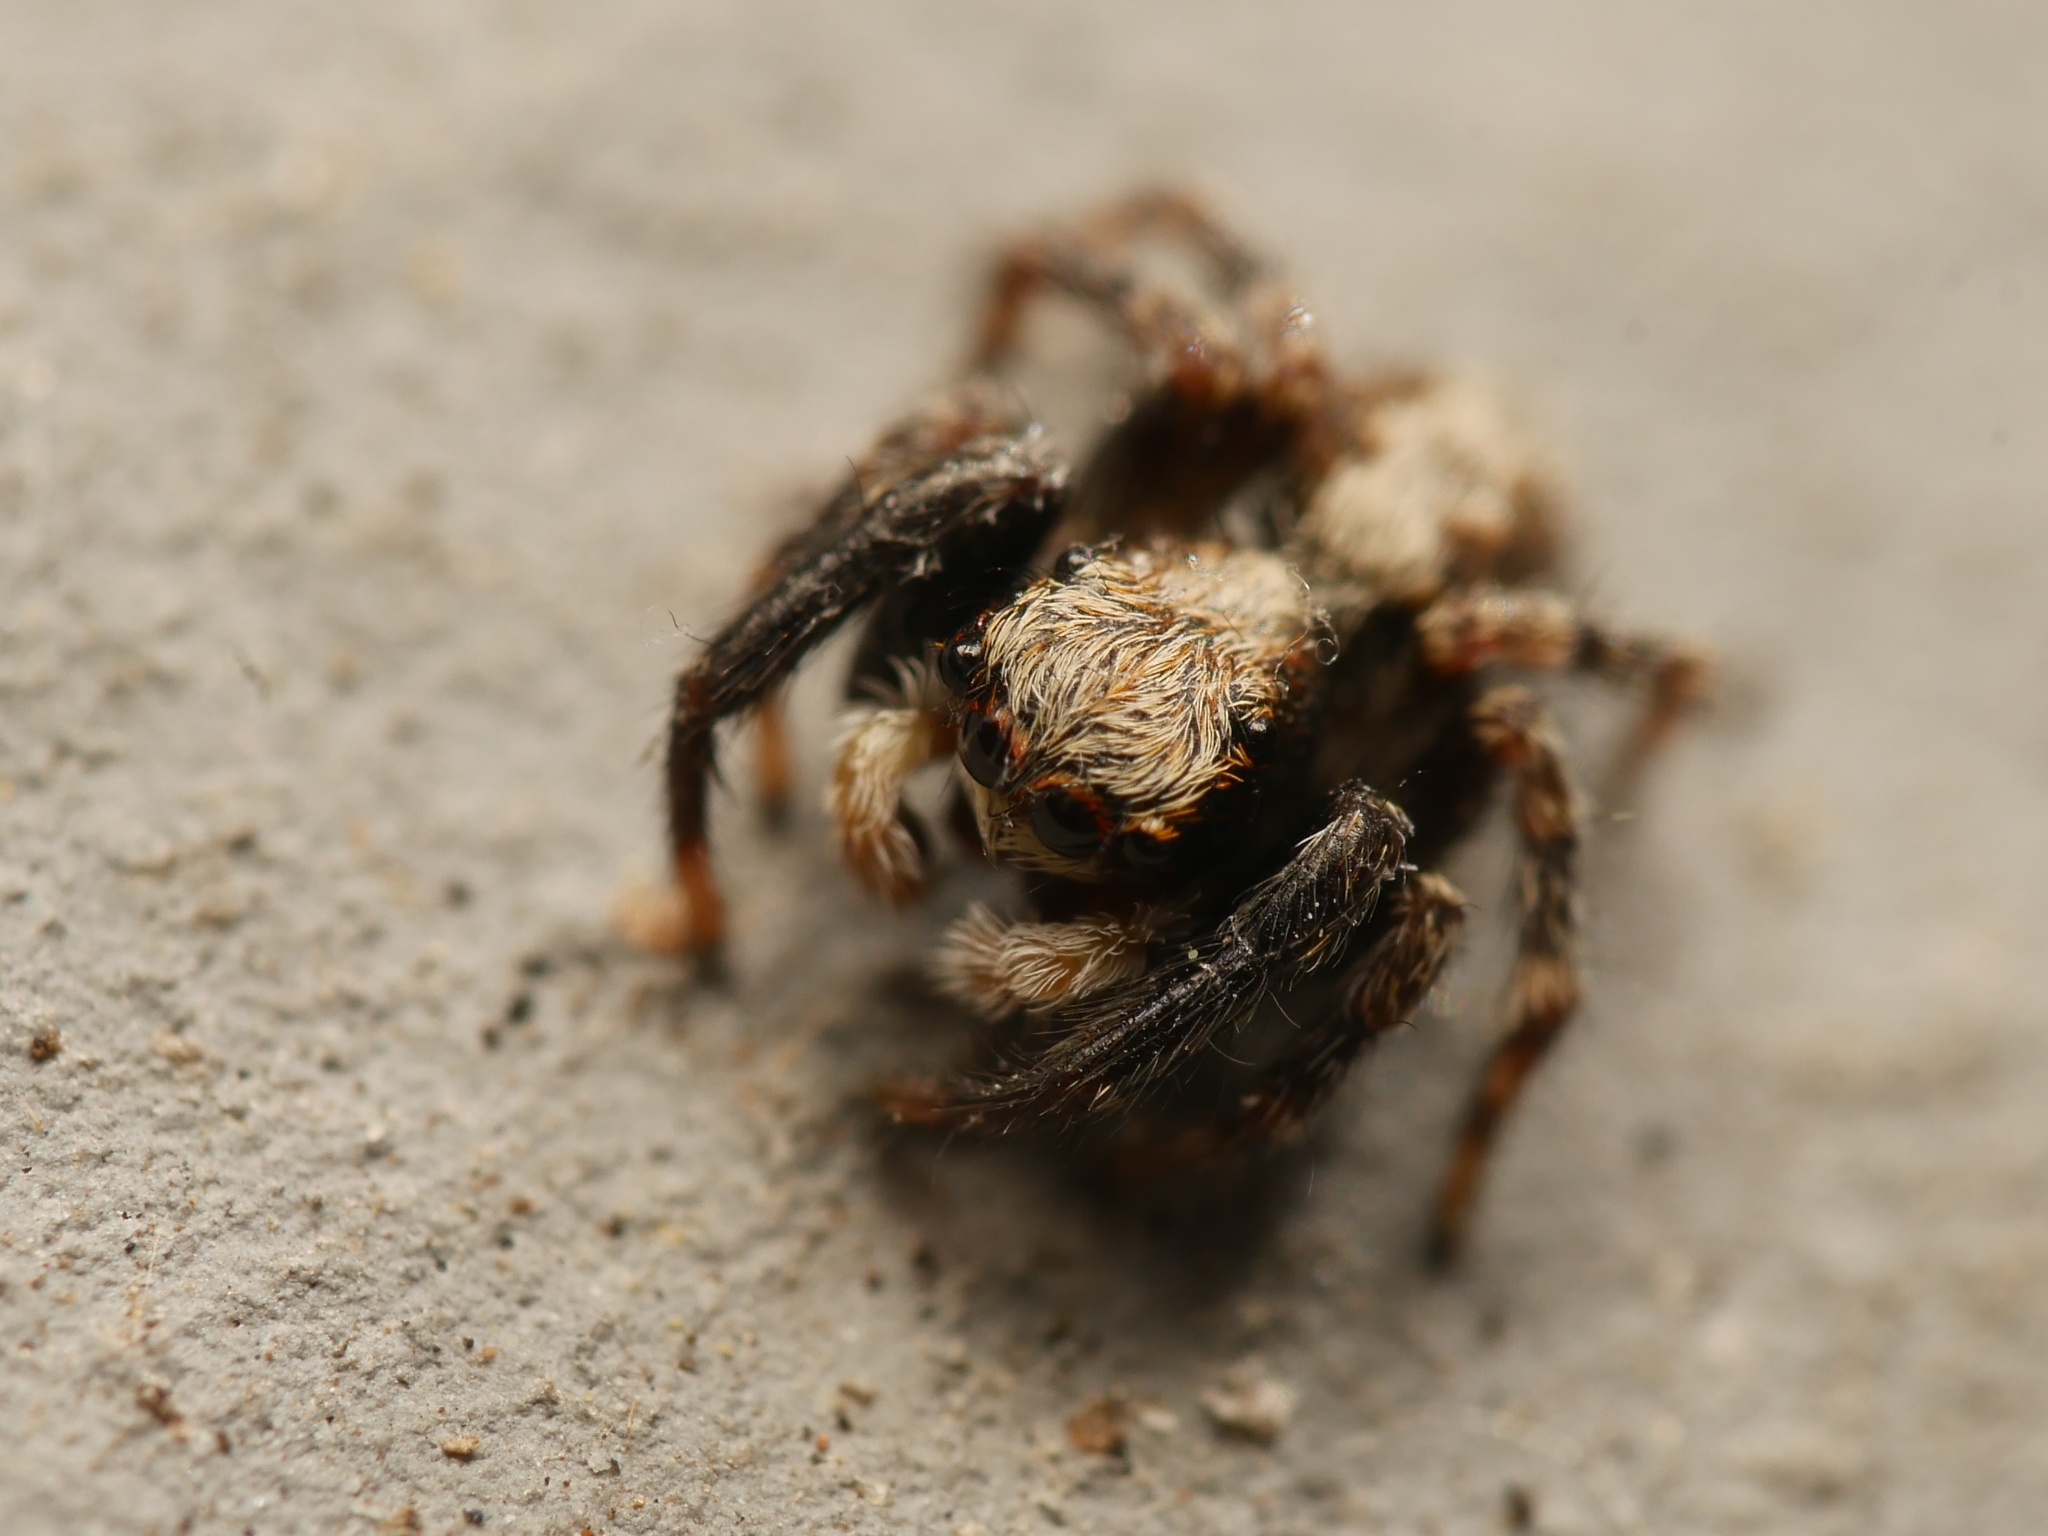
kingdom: Animalia
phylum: Arthropoda
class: Arachnida
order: Araneae
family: Salticidae
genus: Pseudeuophrys
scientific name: Pseudeuophrys lanigera
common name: Jumping spider
